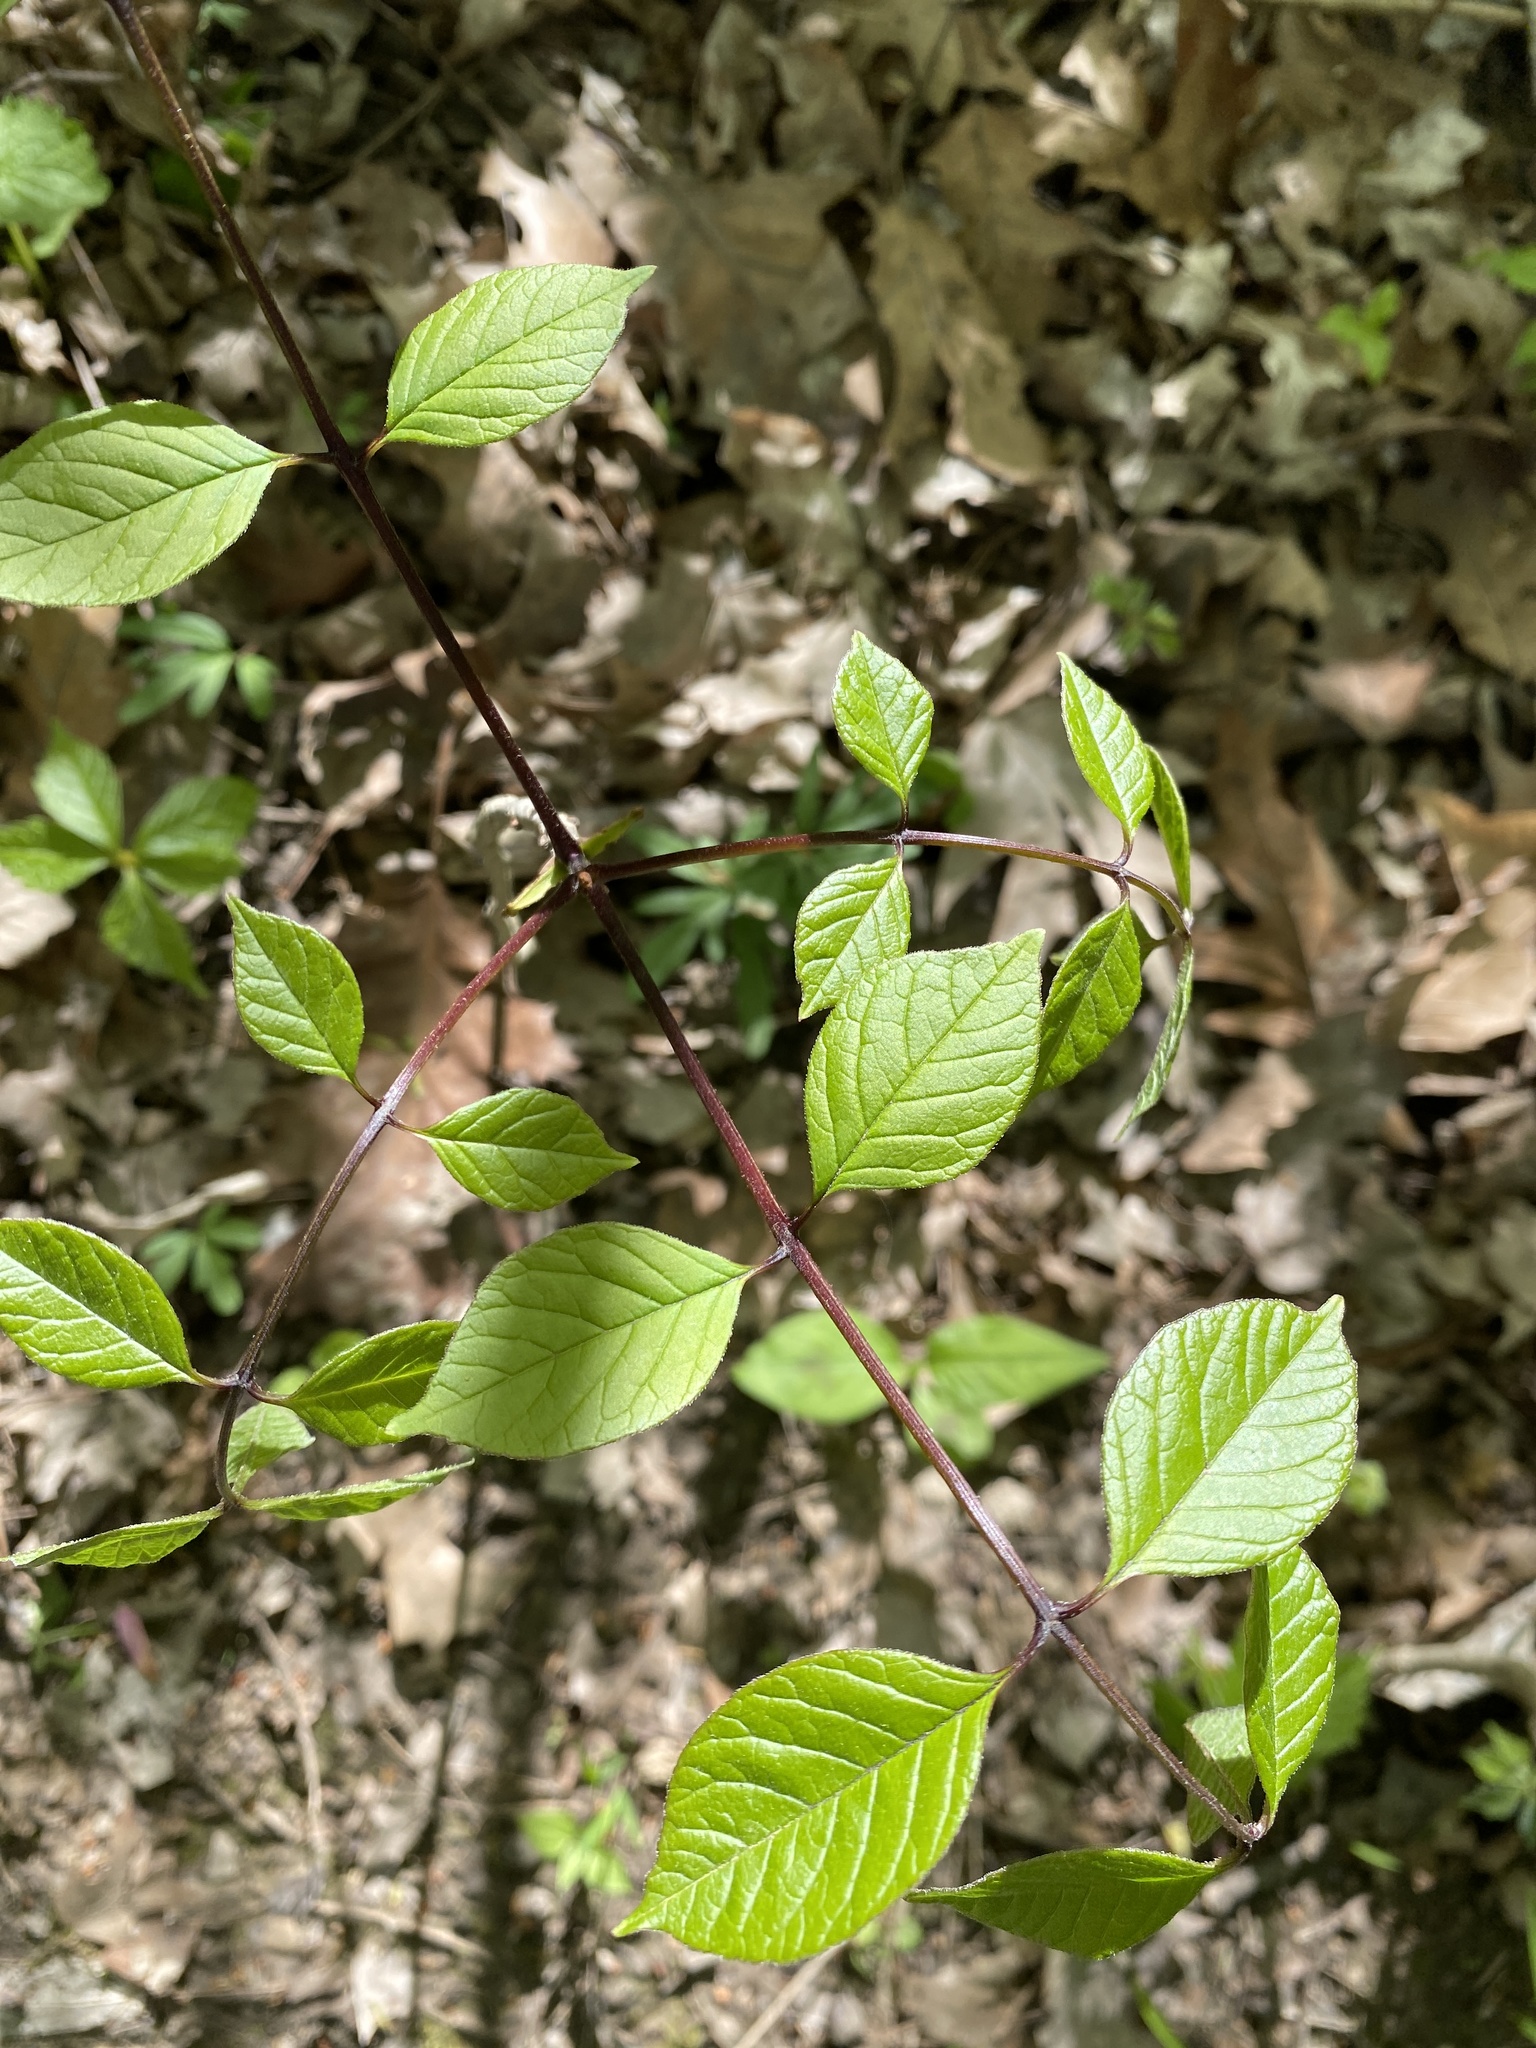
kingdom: Plantae
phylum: Tracheophyta
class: Magnoliopsida
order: Lamiales
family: Oleaceae
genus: Fraxinus
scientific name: Fraxinus quadrangulata
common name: Blue ash
